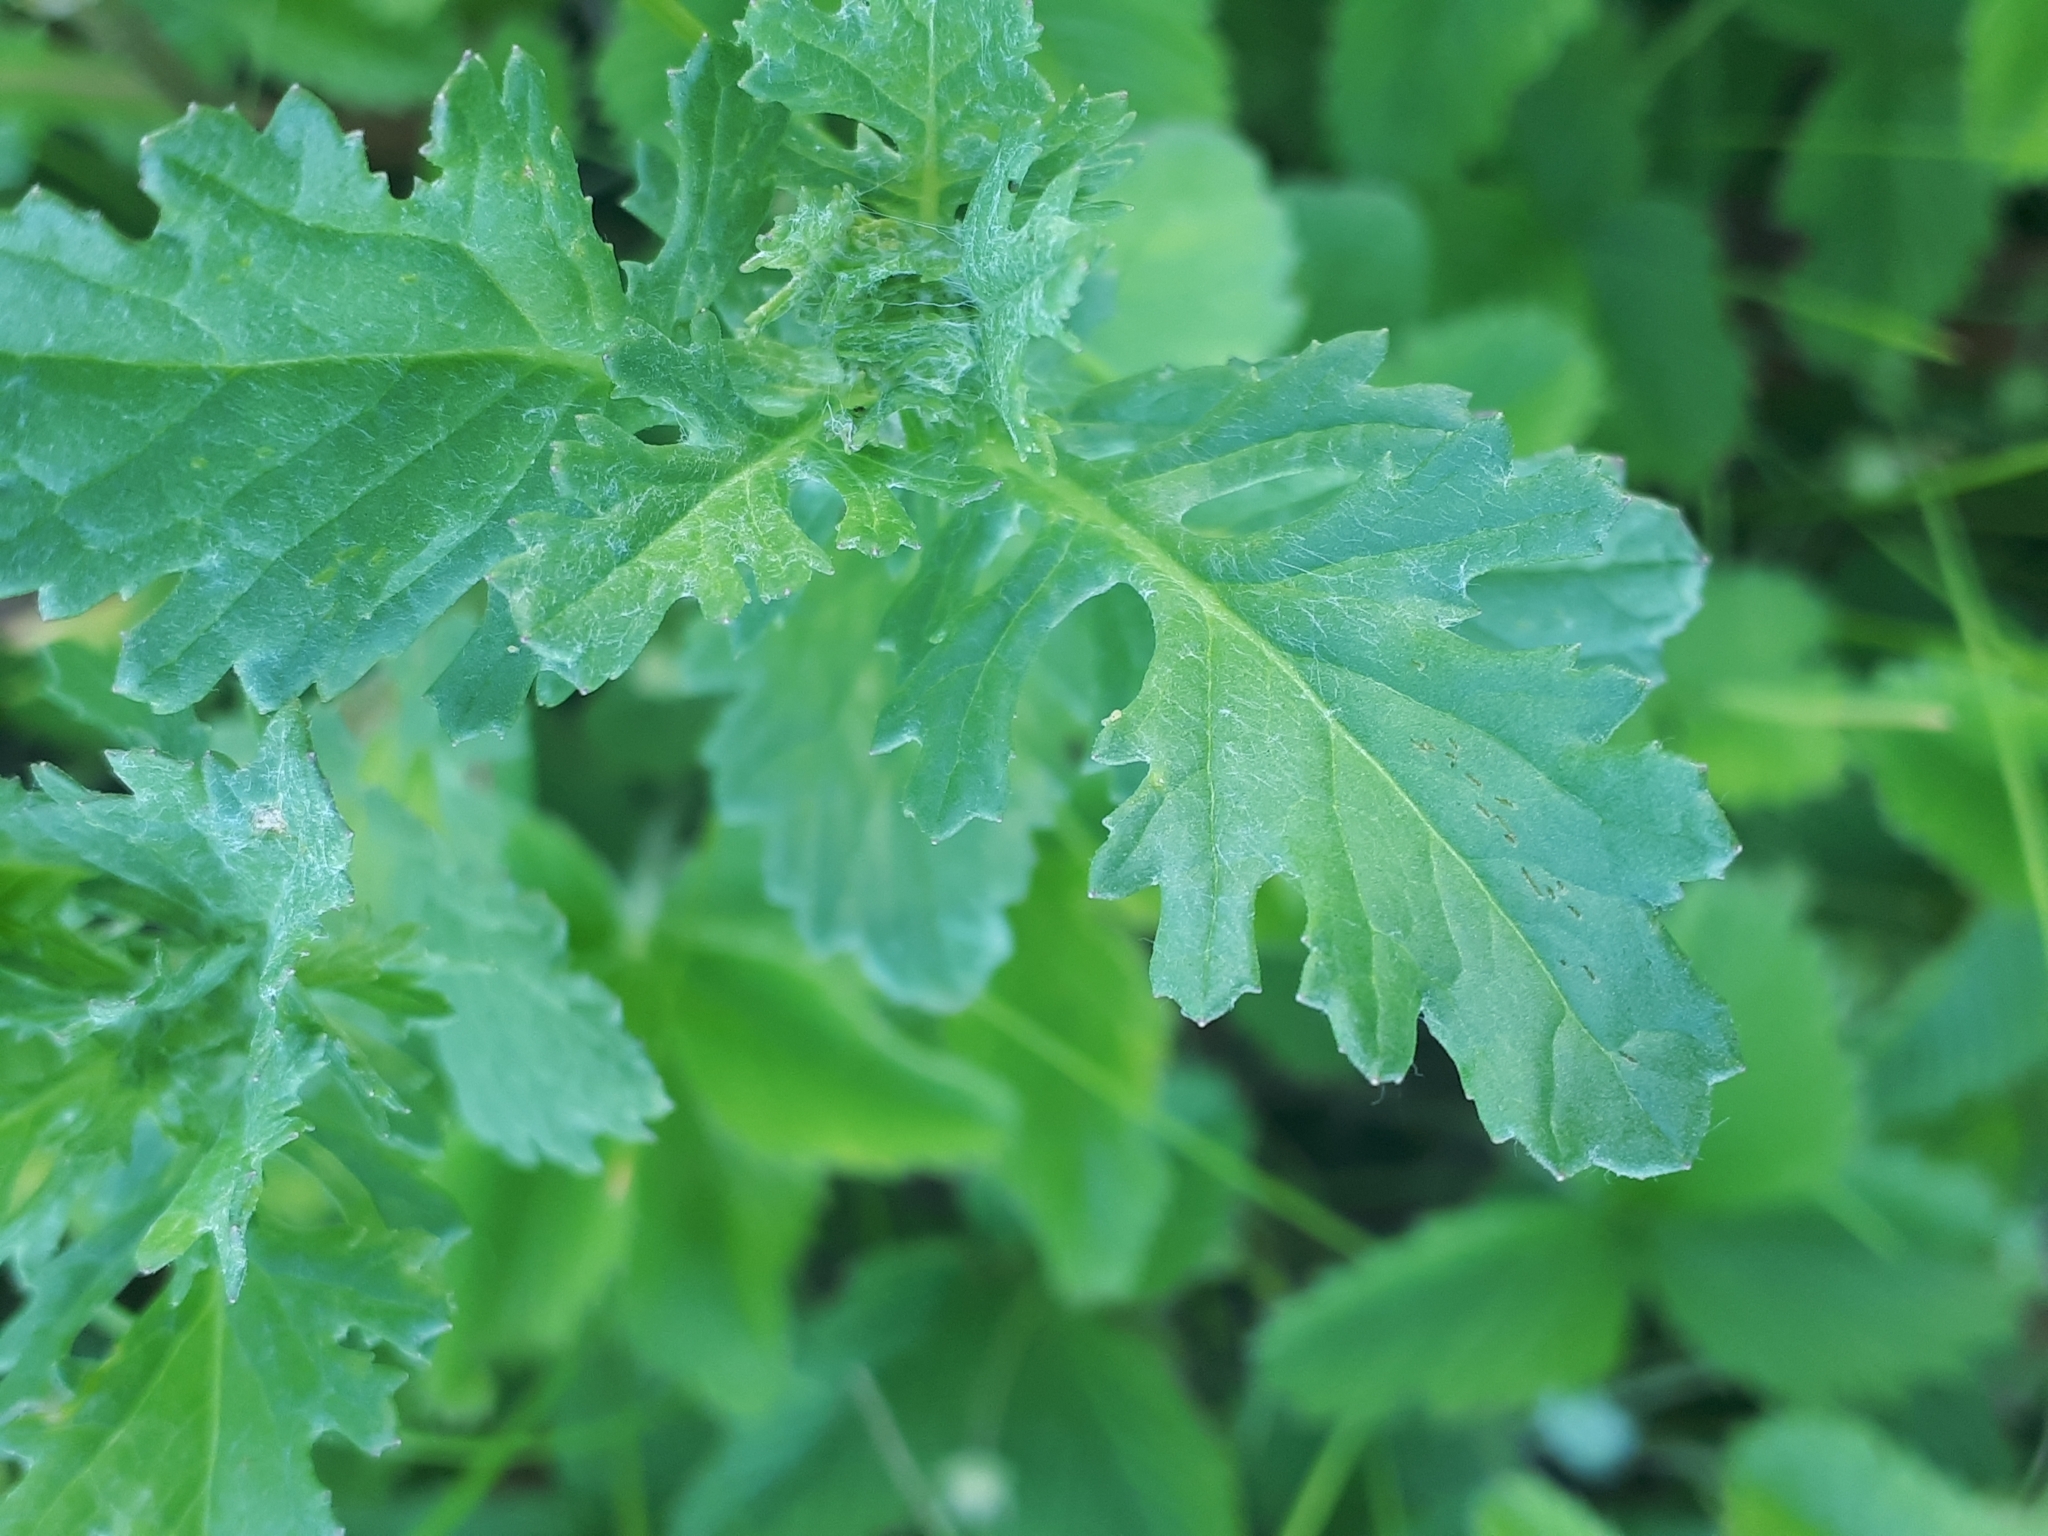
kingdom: Plantae
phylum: Tracheophyta
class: Magnoliopsida
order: Asterales
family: Asteraceae
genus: Jacobaea
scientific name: Jacobaea vulgaris
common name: Stinking willie
